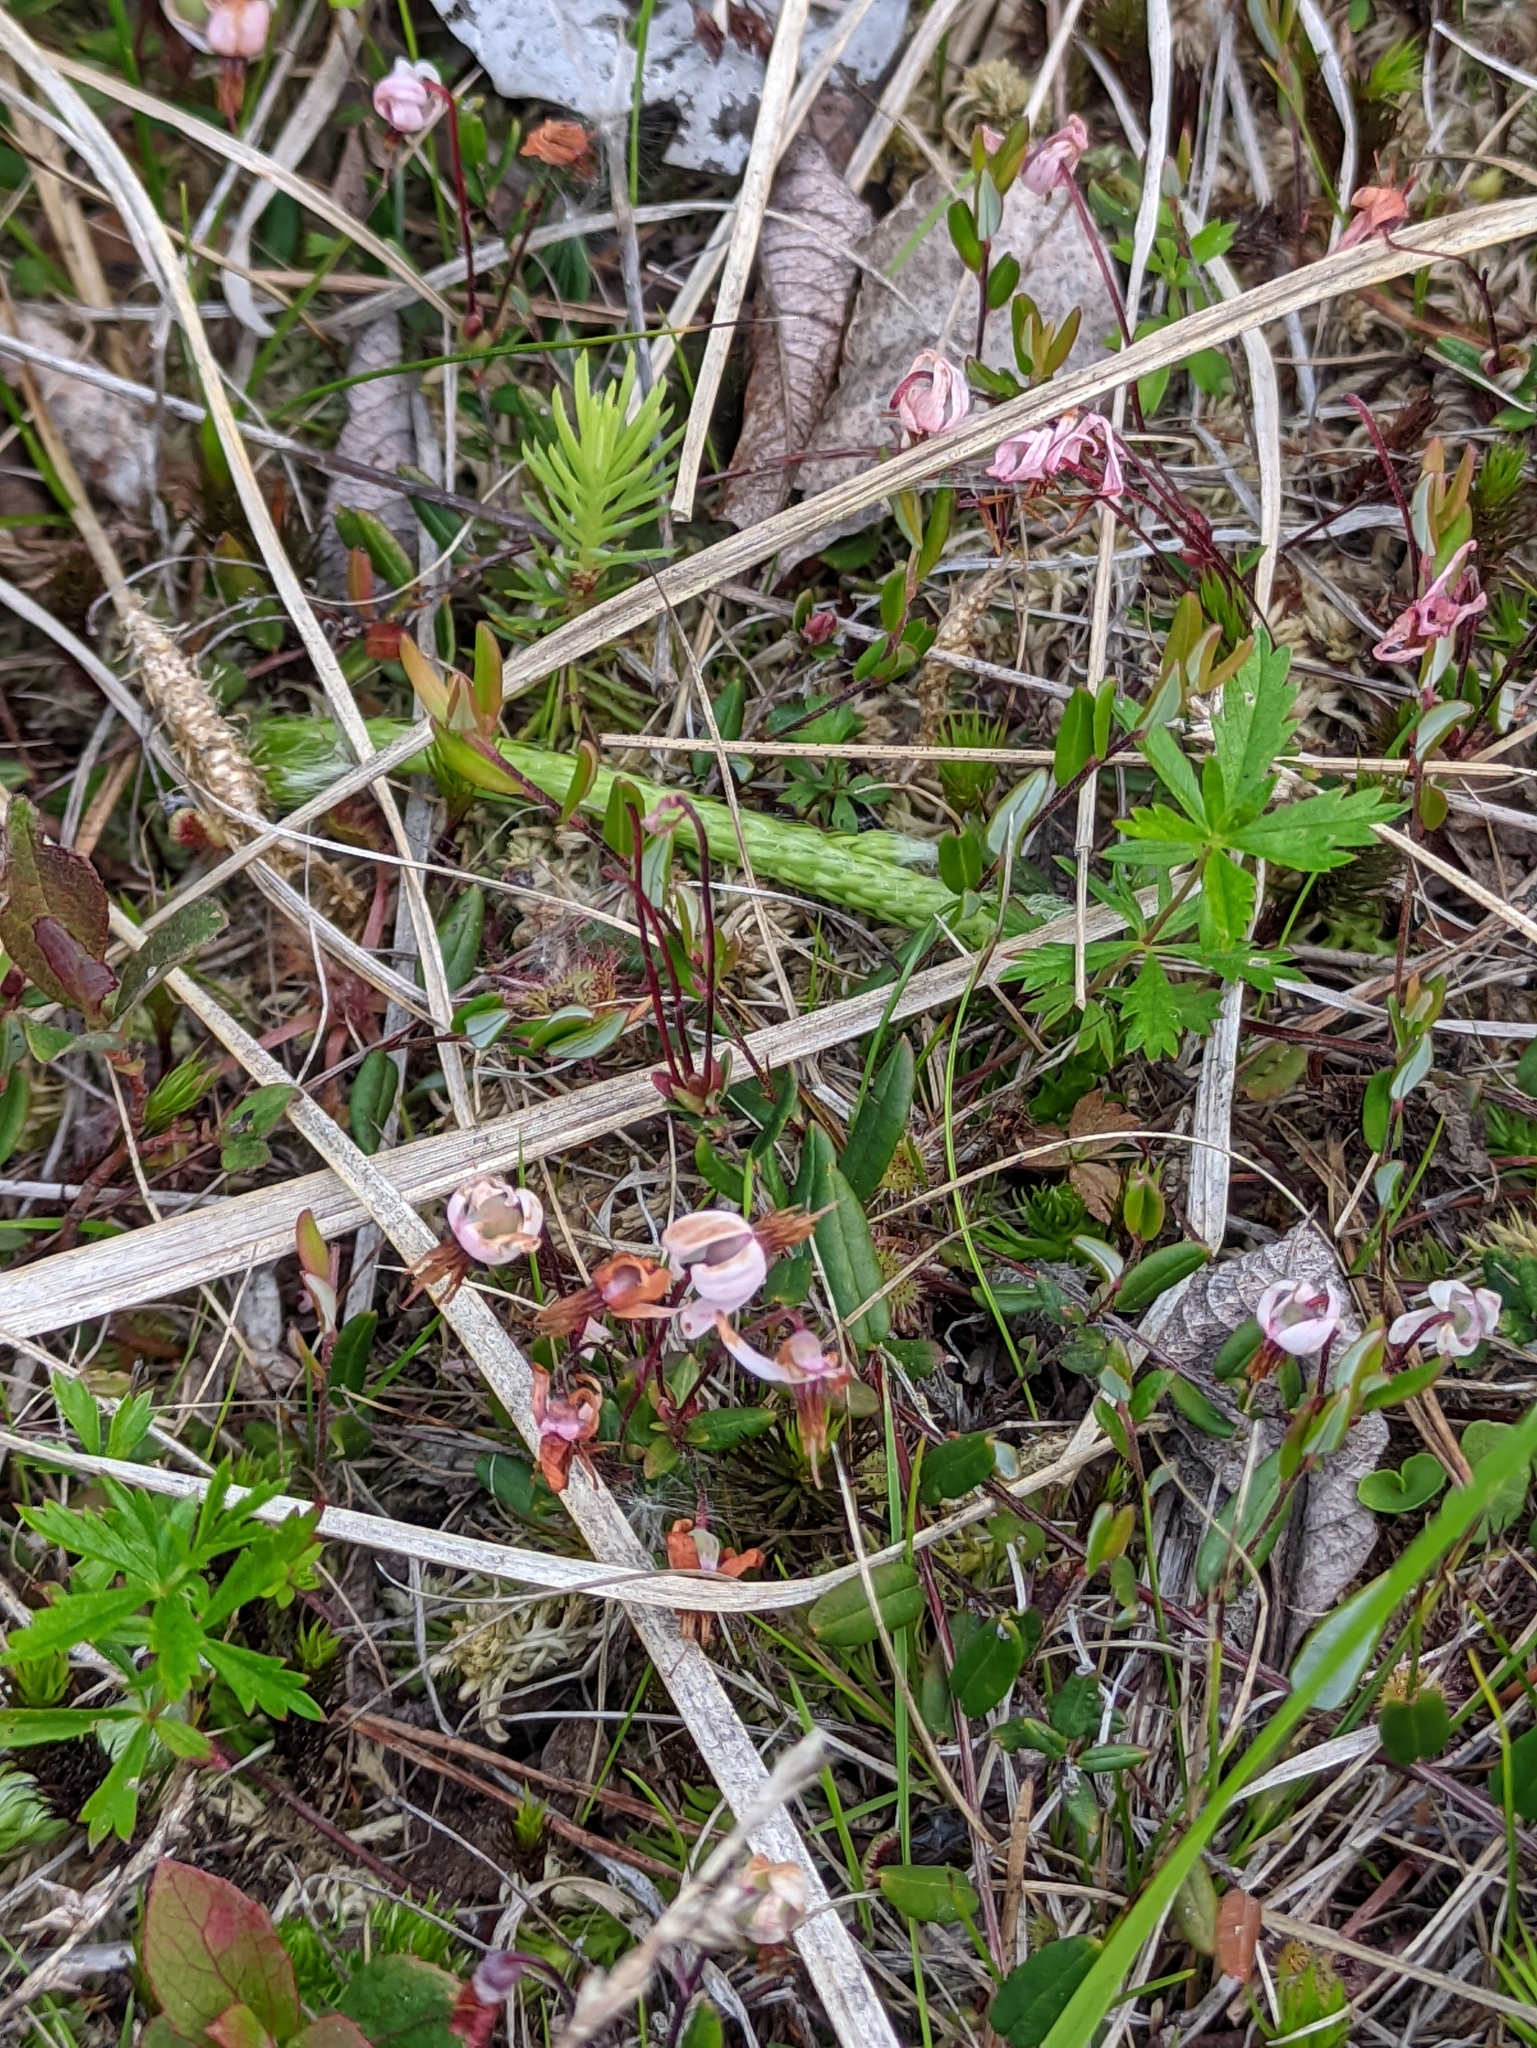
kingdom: Plantae
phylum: Tracheophyta
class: Magnoliopsida
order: Ericales
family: Ericaceae
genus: Vaccinium
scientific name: Vaccinium oxycoccos
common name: Cranberry
